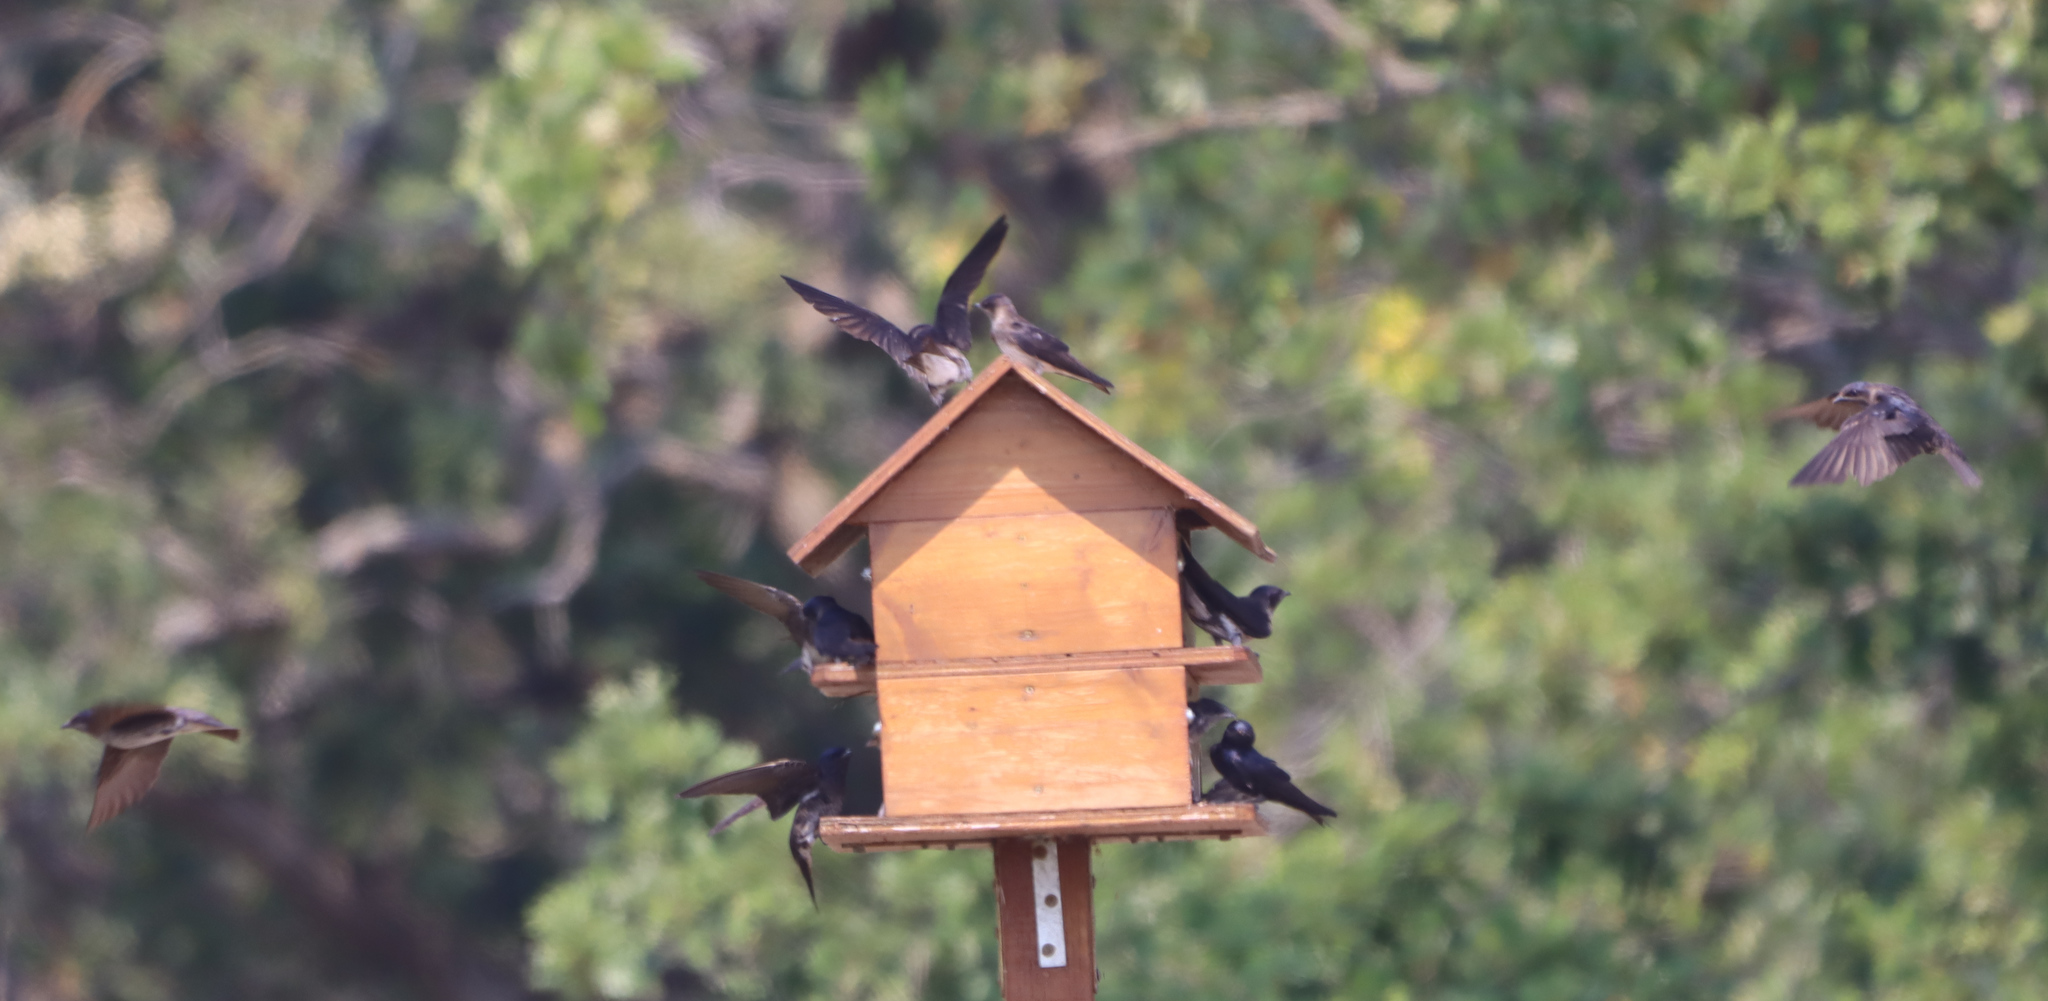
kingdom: Animalia
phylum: Chordata
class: Aves
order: Passeriformes
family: Hirundinidae
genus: Progne
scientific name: Progne subis
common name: Purple martin
